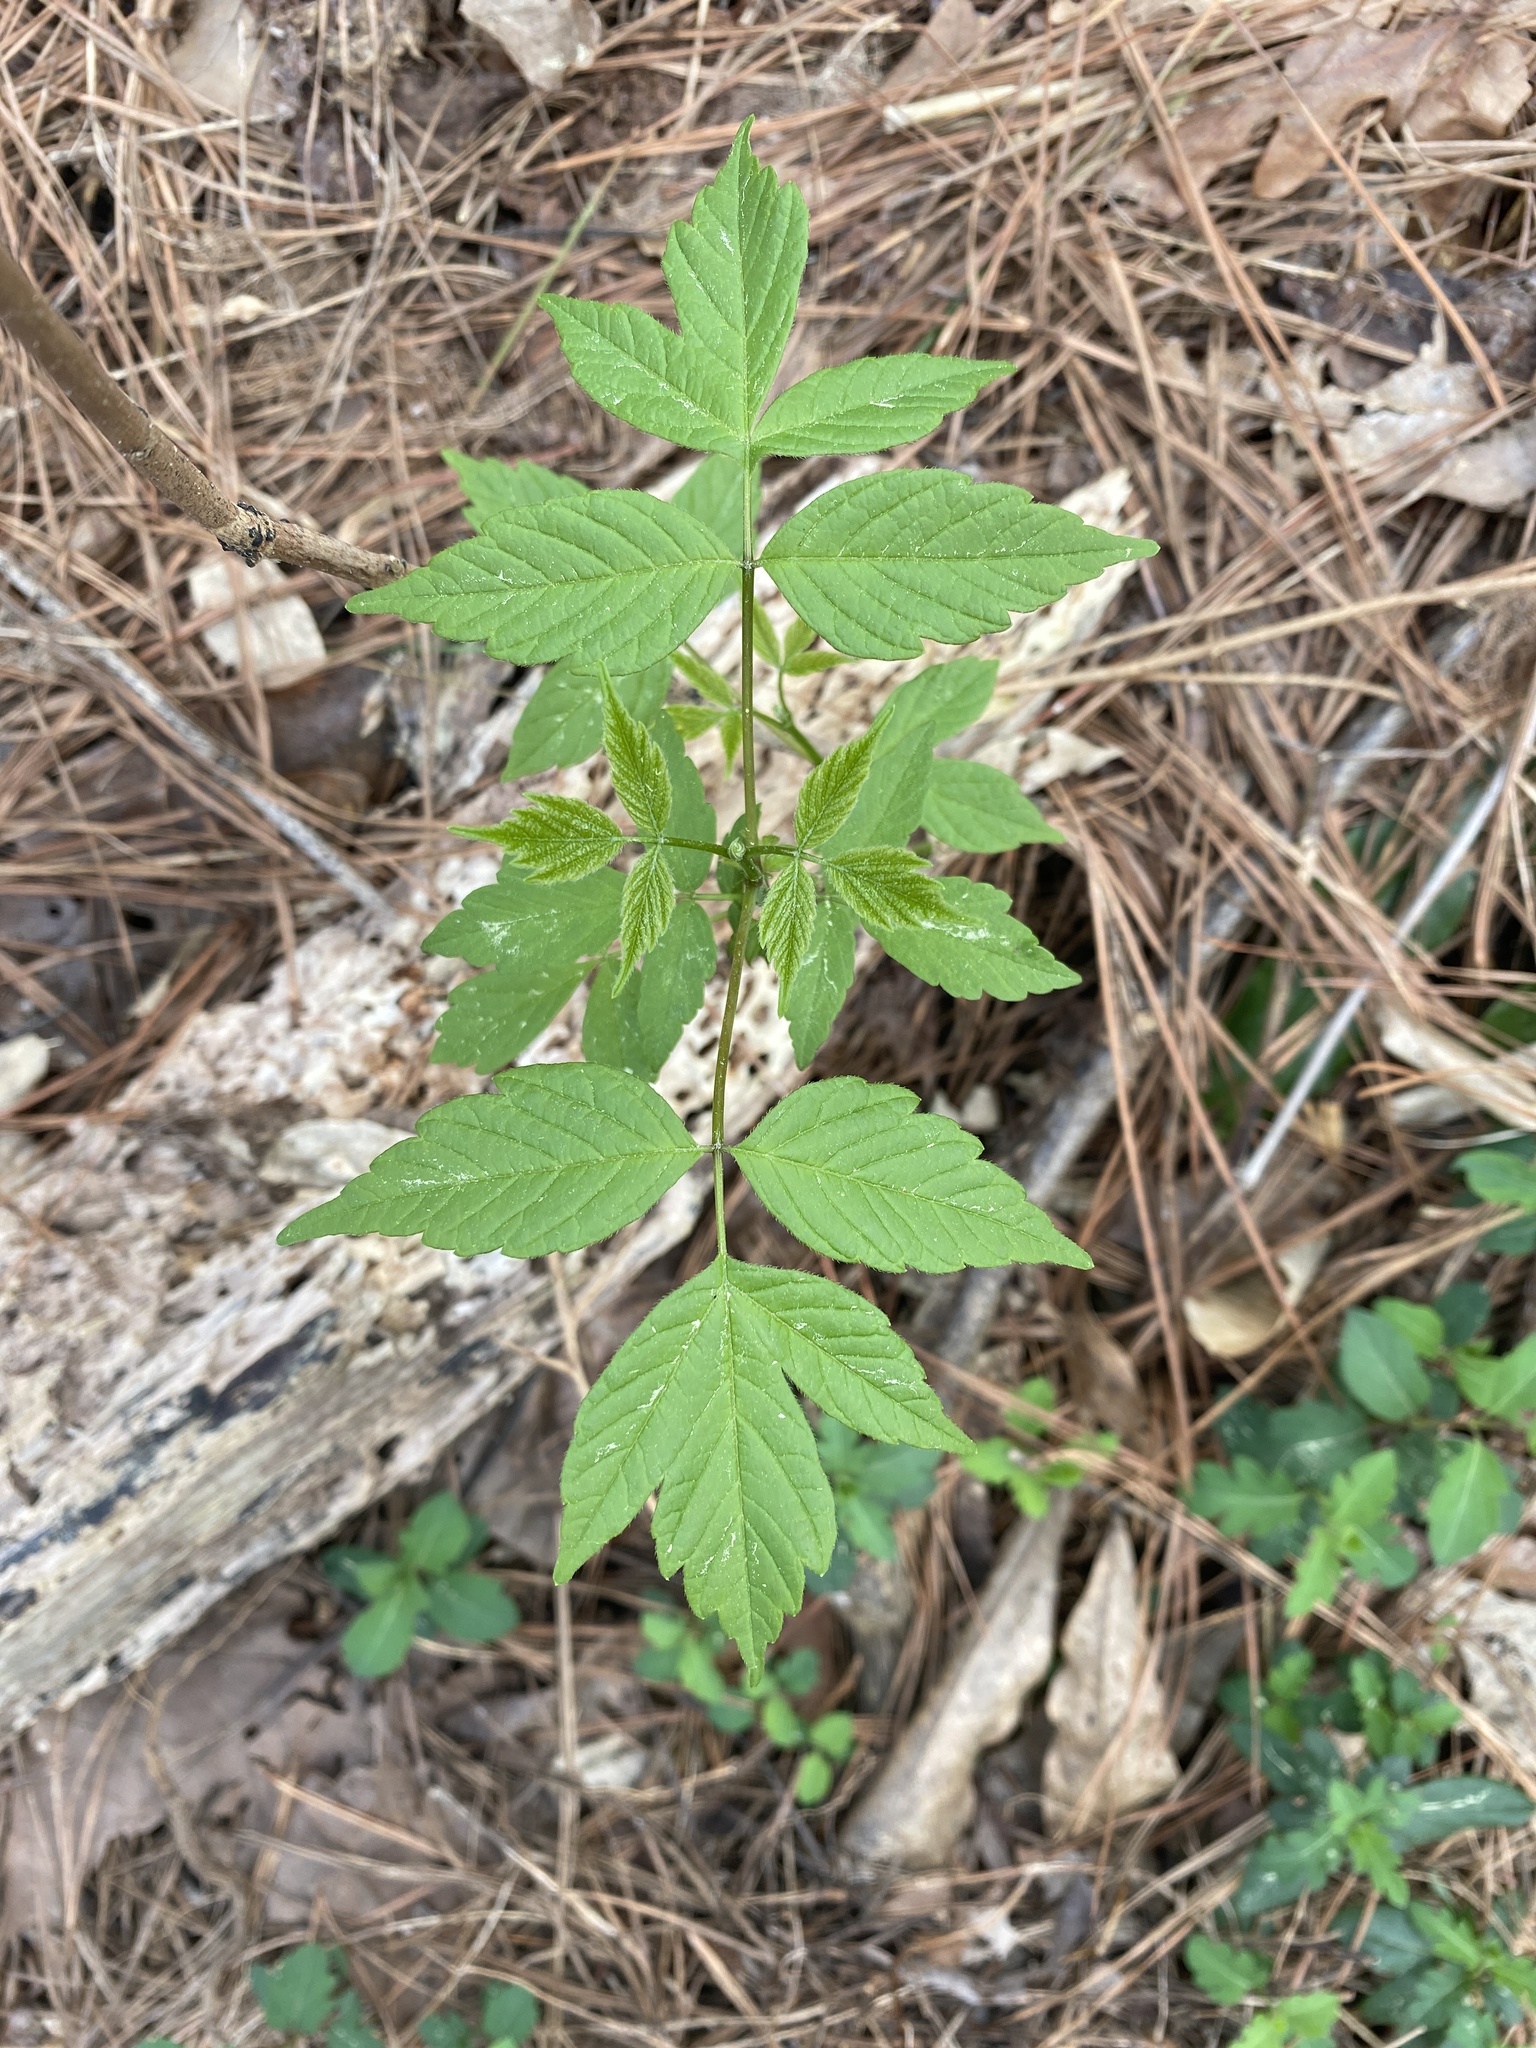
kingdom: Plantae
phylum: Tracheophyta
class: Magnoliopsida
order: Sapindales
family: Sapindaceae
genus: Acer
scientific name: Acer negundo
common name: Ashleaf maple
